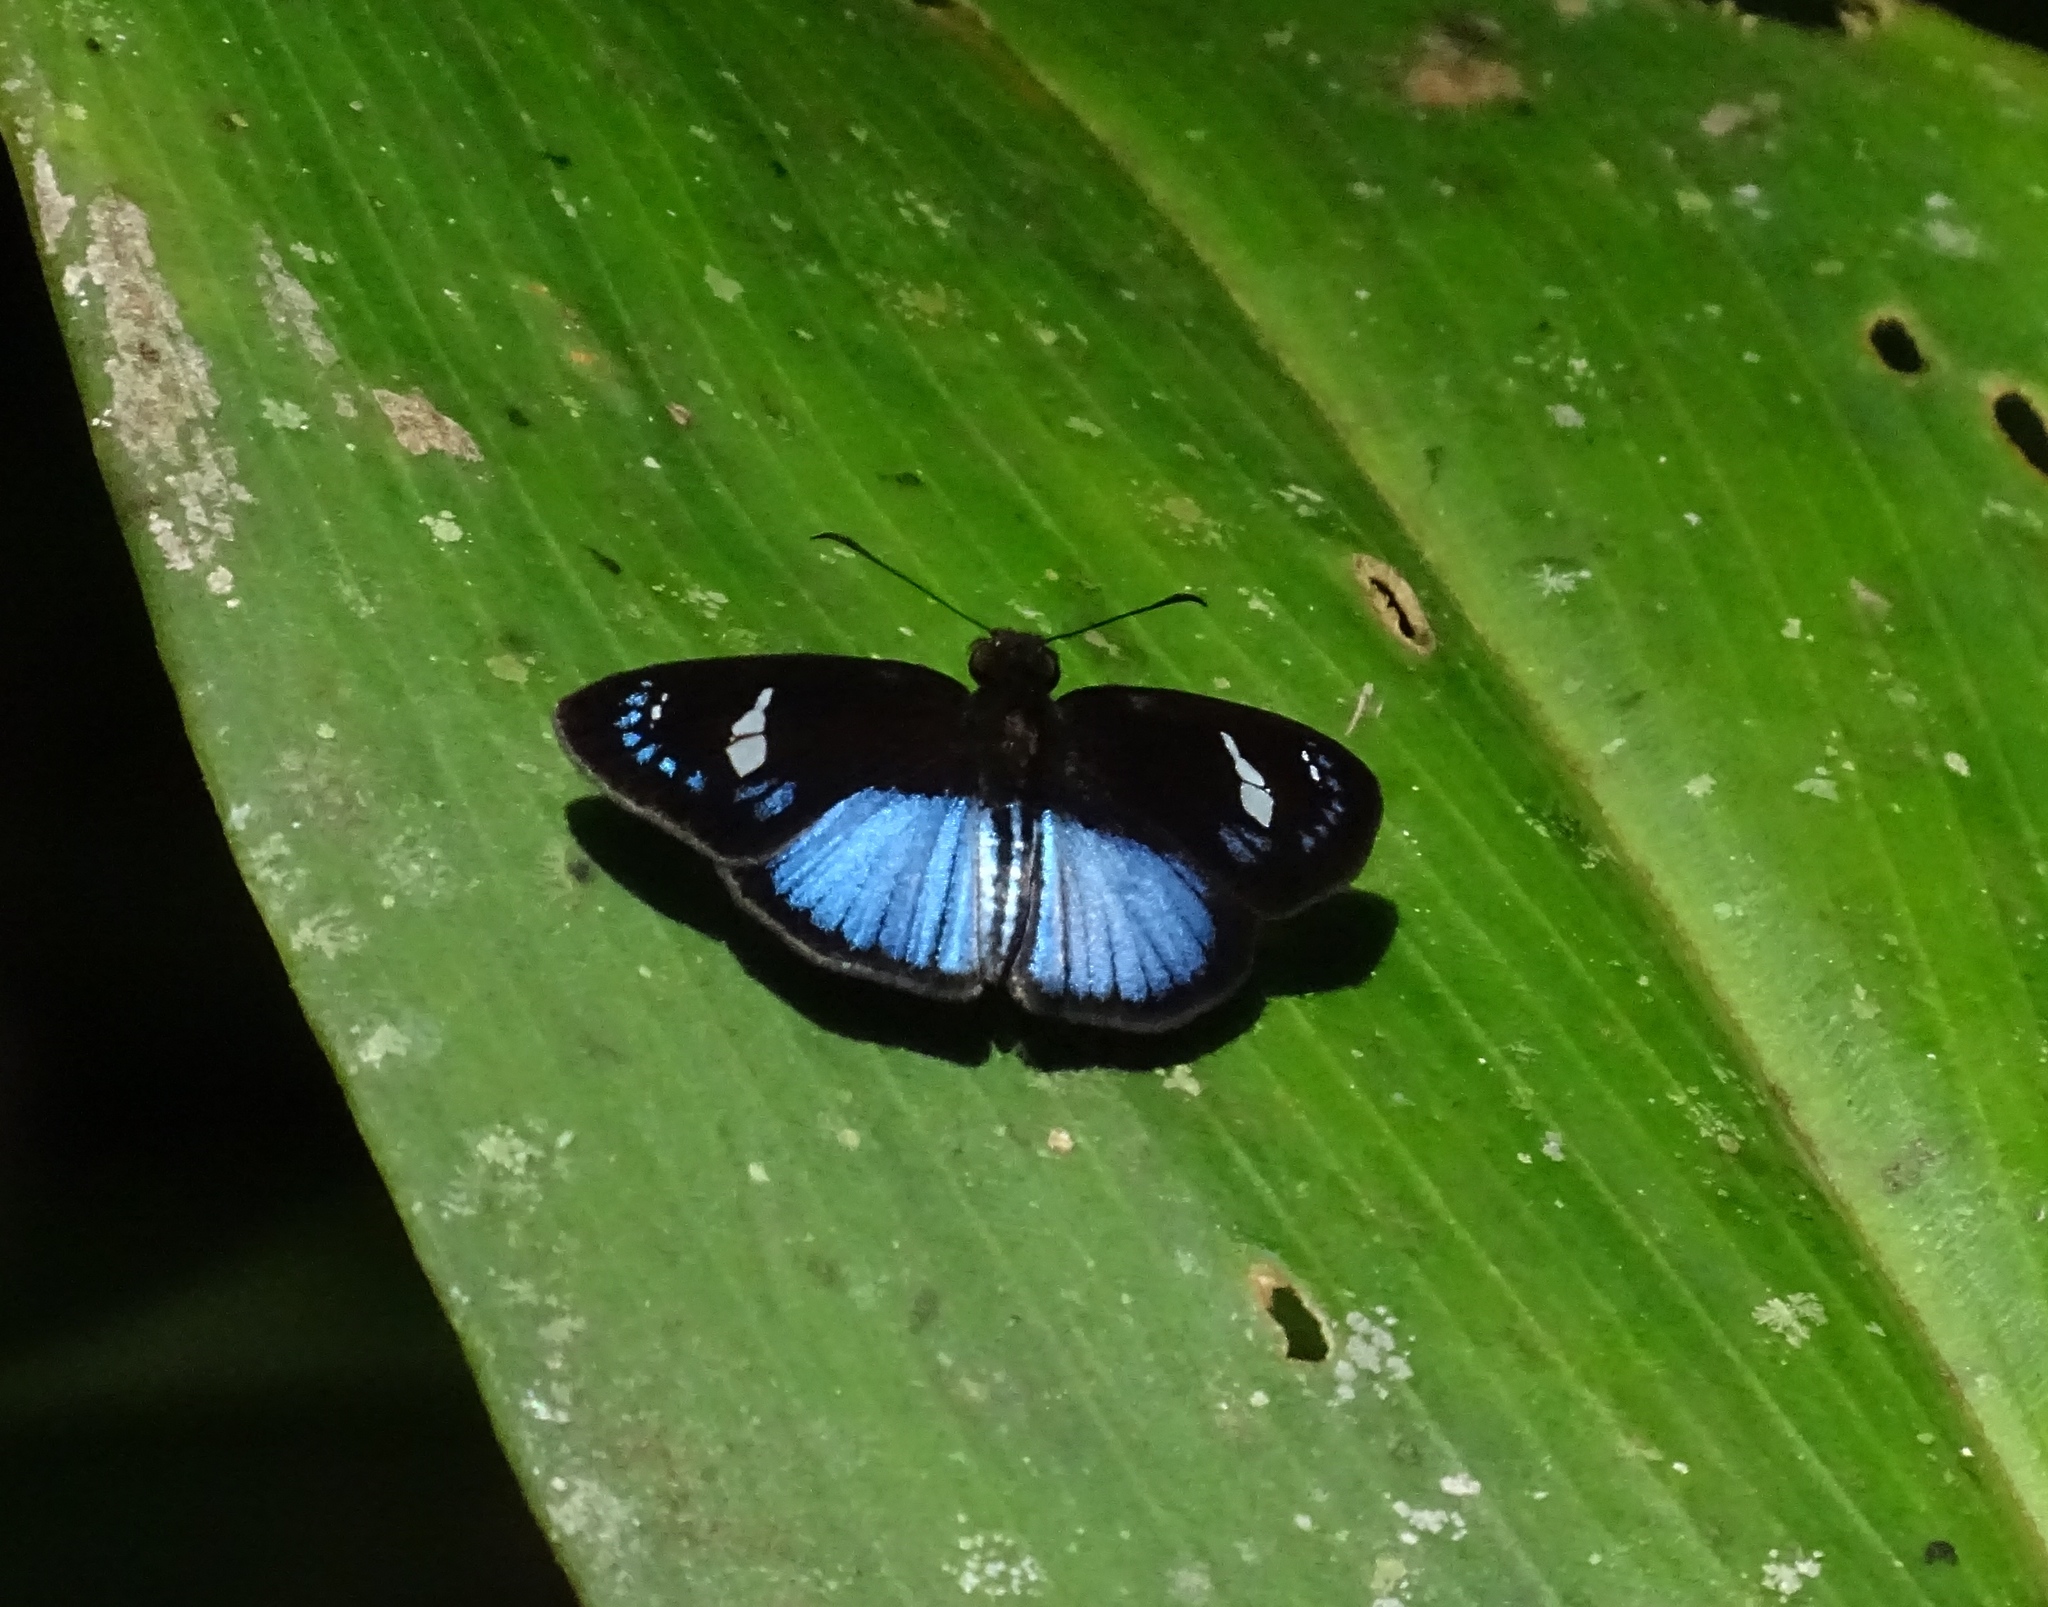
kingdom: Animalia
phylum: Arthropoda
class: Insecta
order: Lepidoptera
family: Hesperiidae
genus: Pythonides
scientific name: Pythonides jovianus
